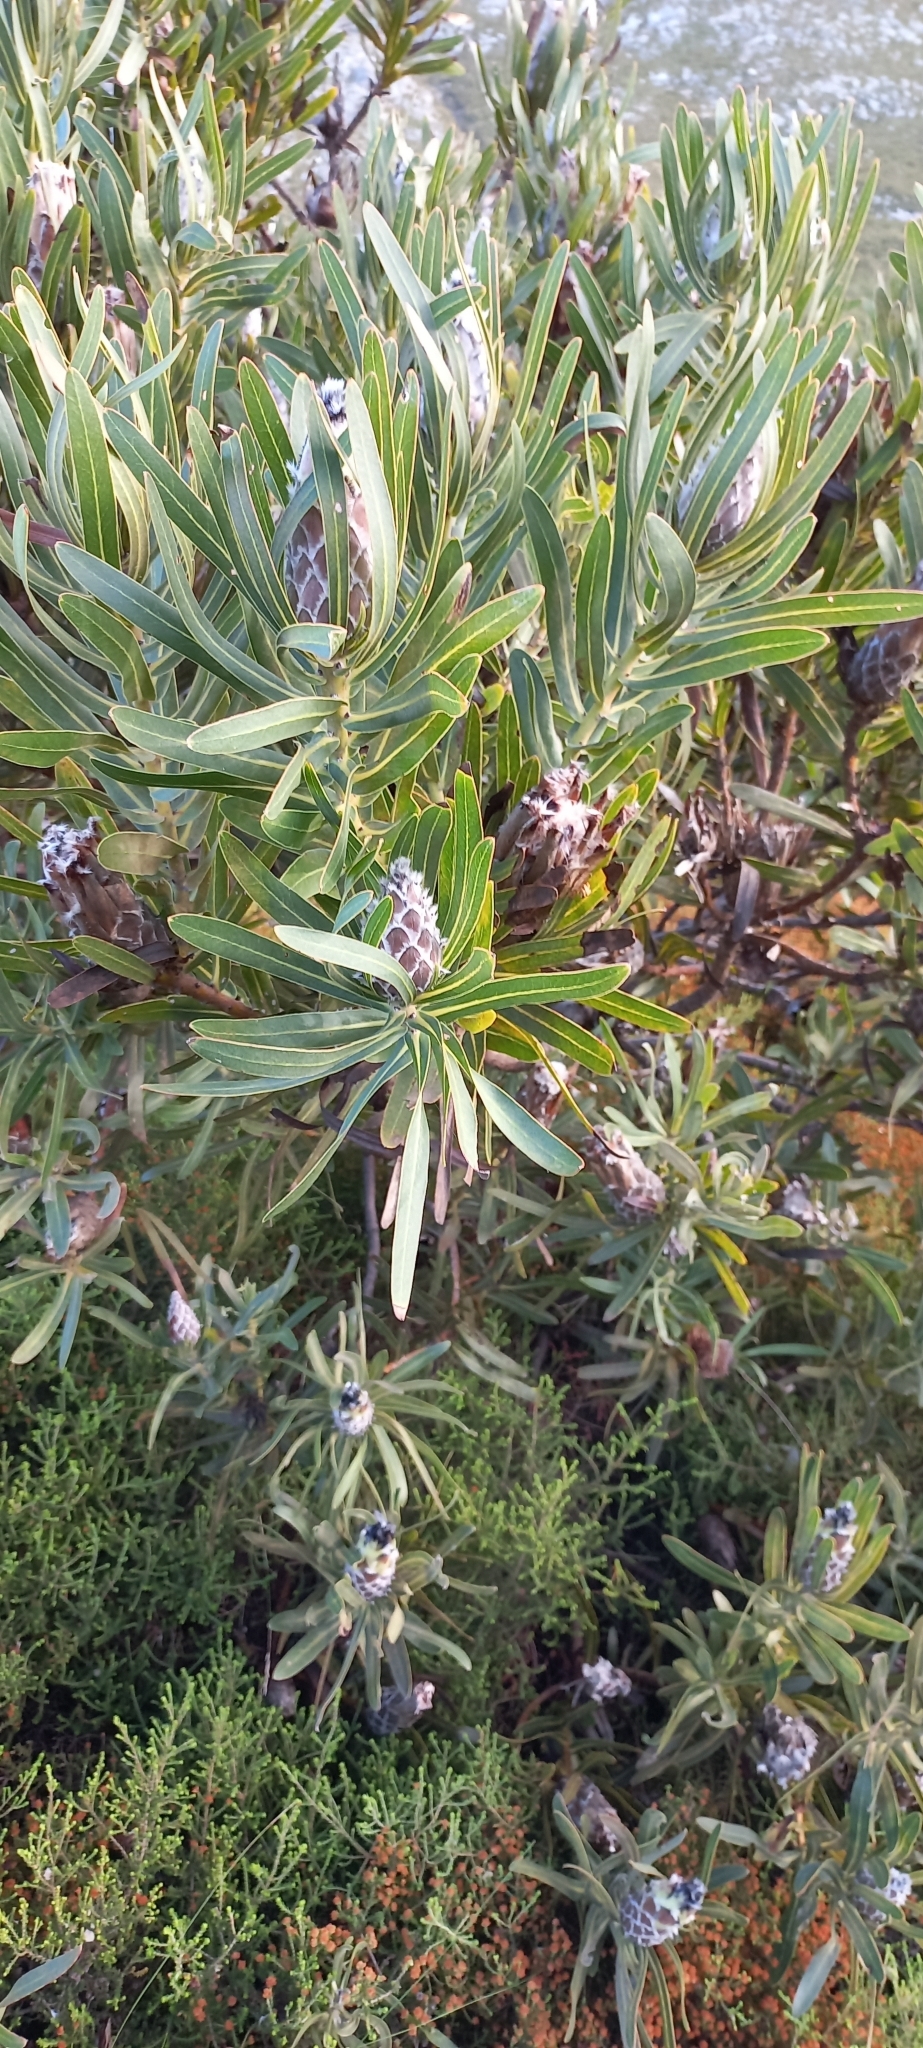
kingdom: Plantae
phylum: Tracheophyta
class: Magnoliopsida
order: Proteales
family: Proteaceae
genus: Protea
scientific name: Protea
